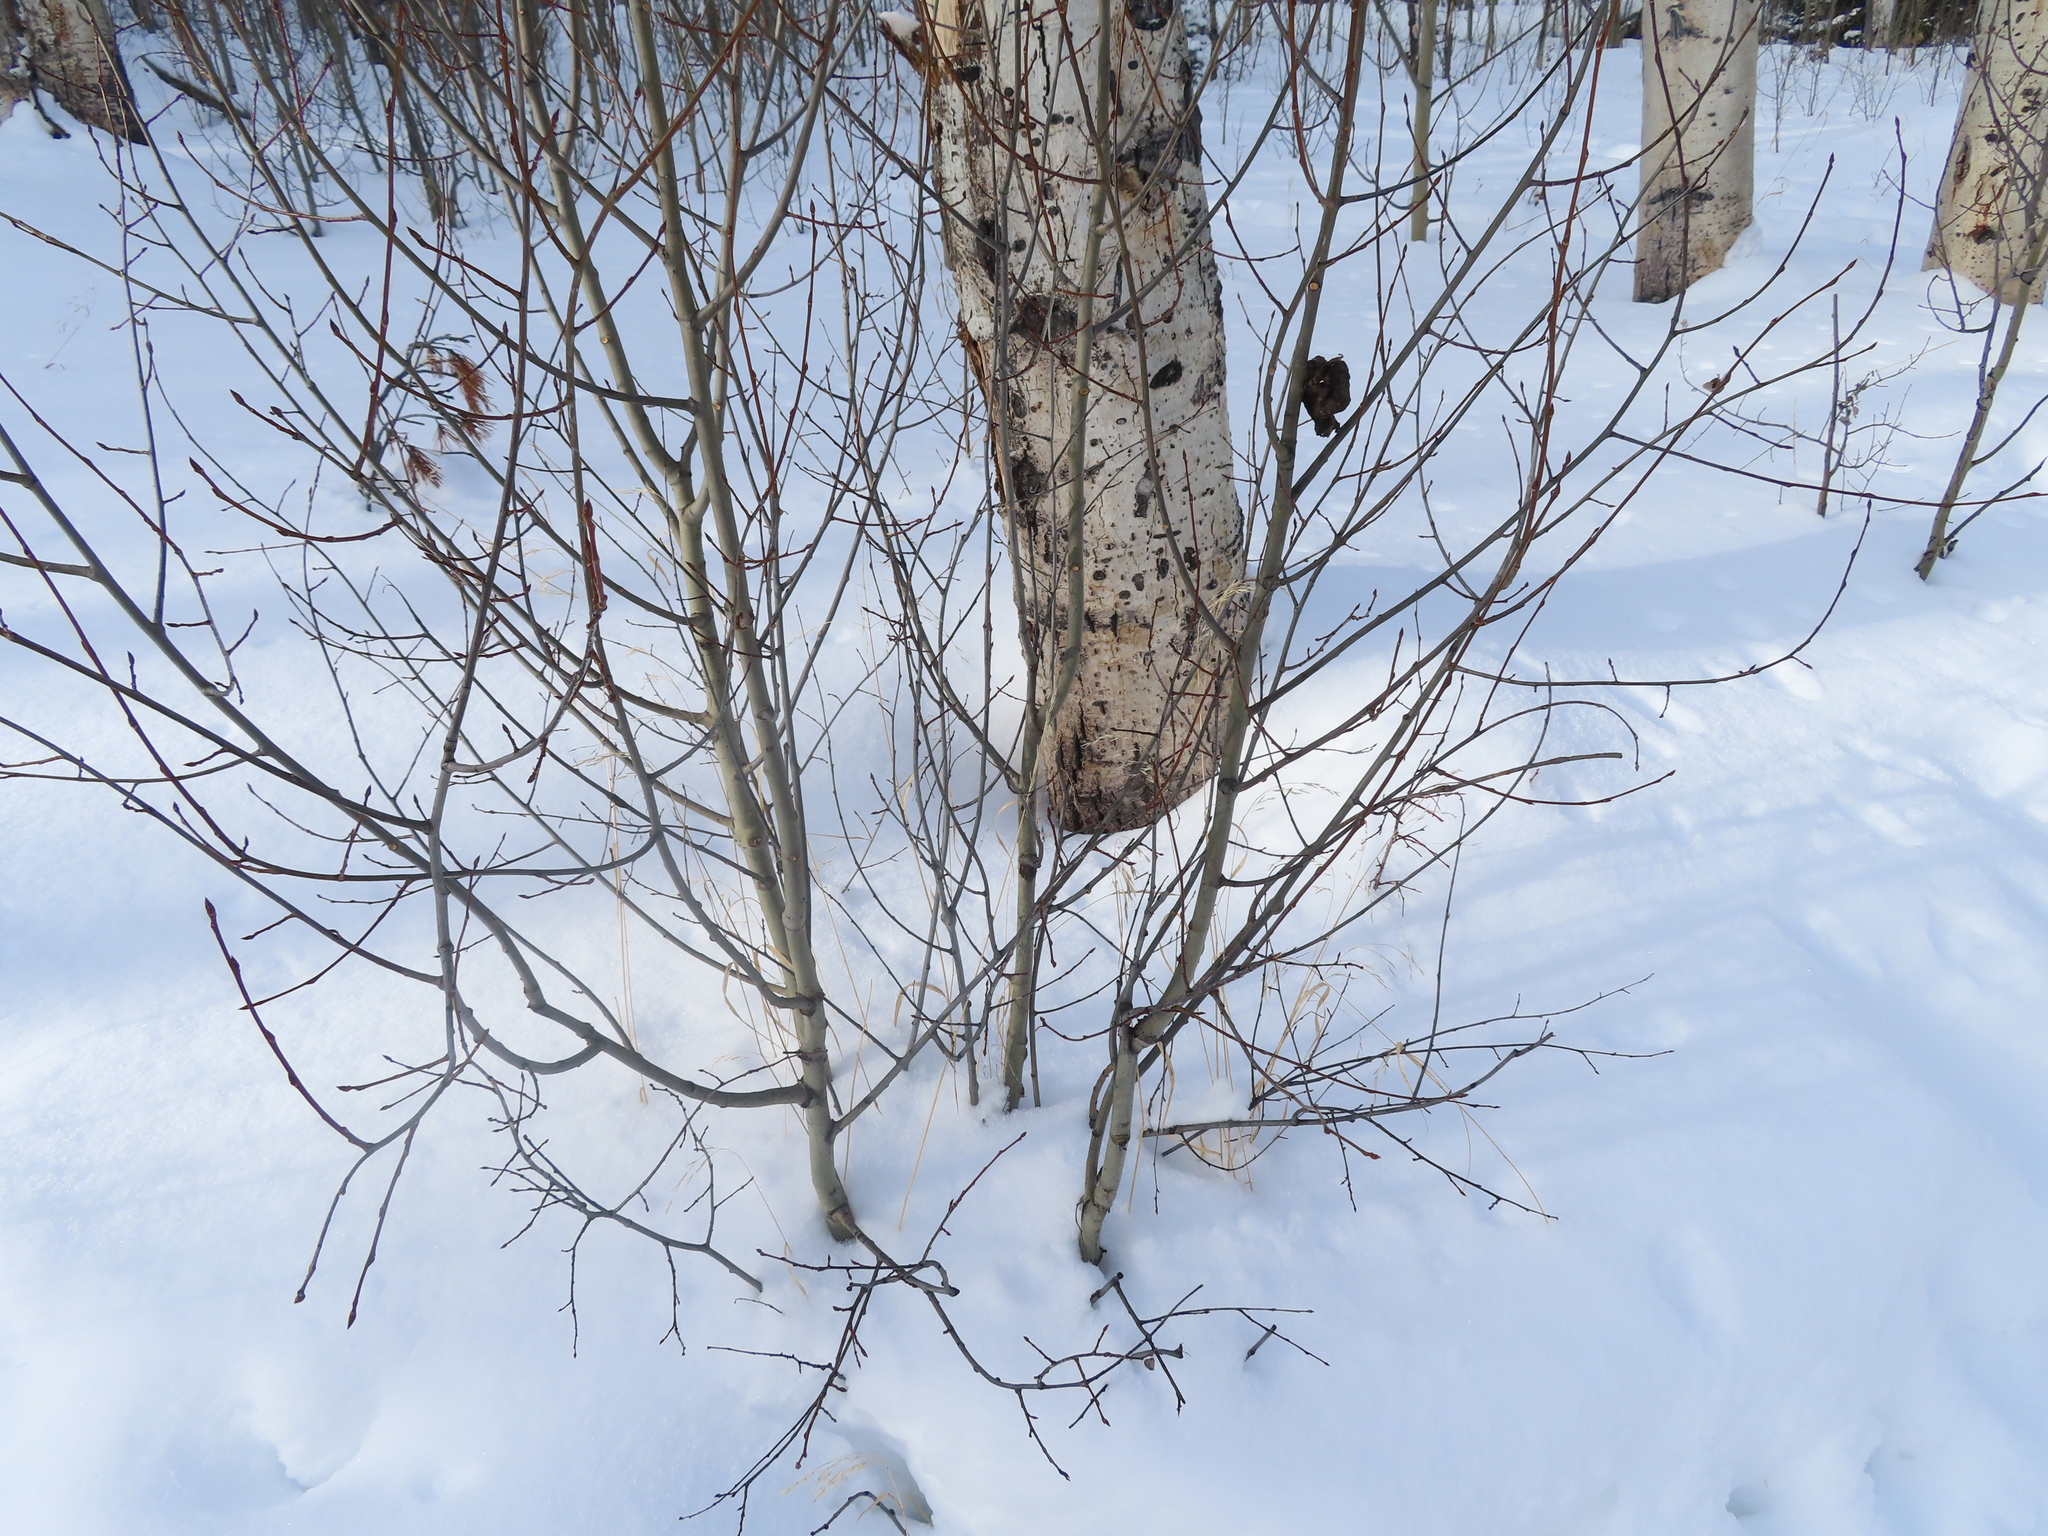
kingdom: Plantae
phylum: Tracheophyta
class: Magnoliopsida
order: Malpighiales
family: Salicaceae
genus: Populus
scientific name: Populus tremuloides
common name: Quaking aspen
